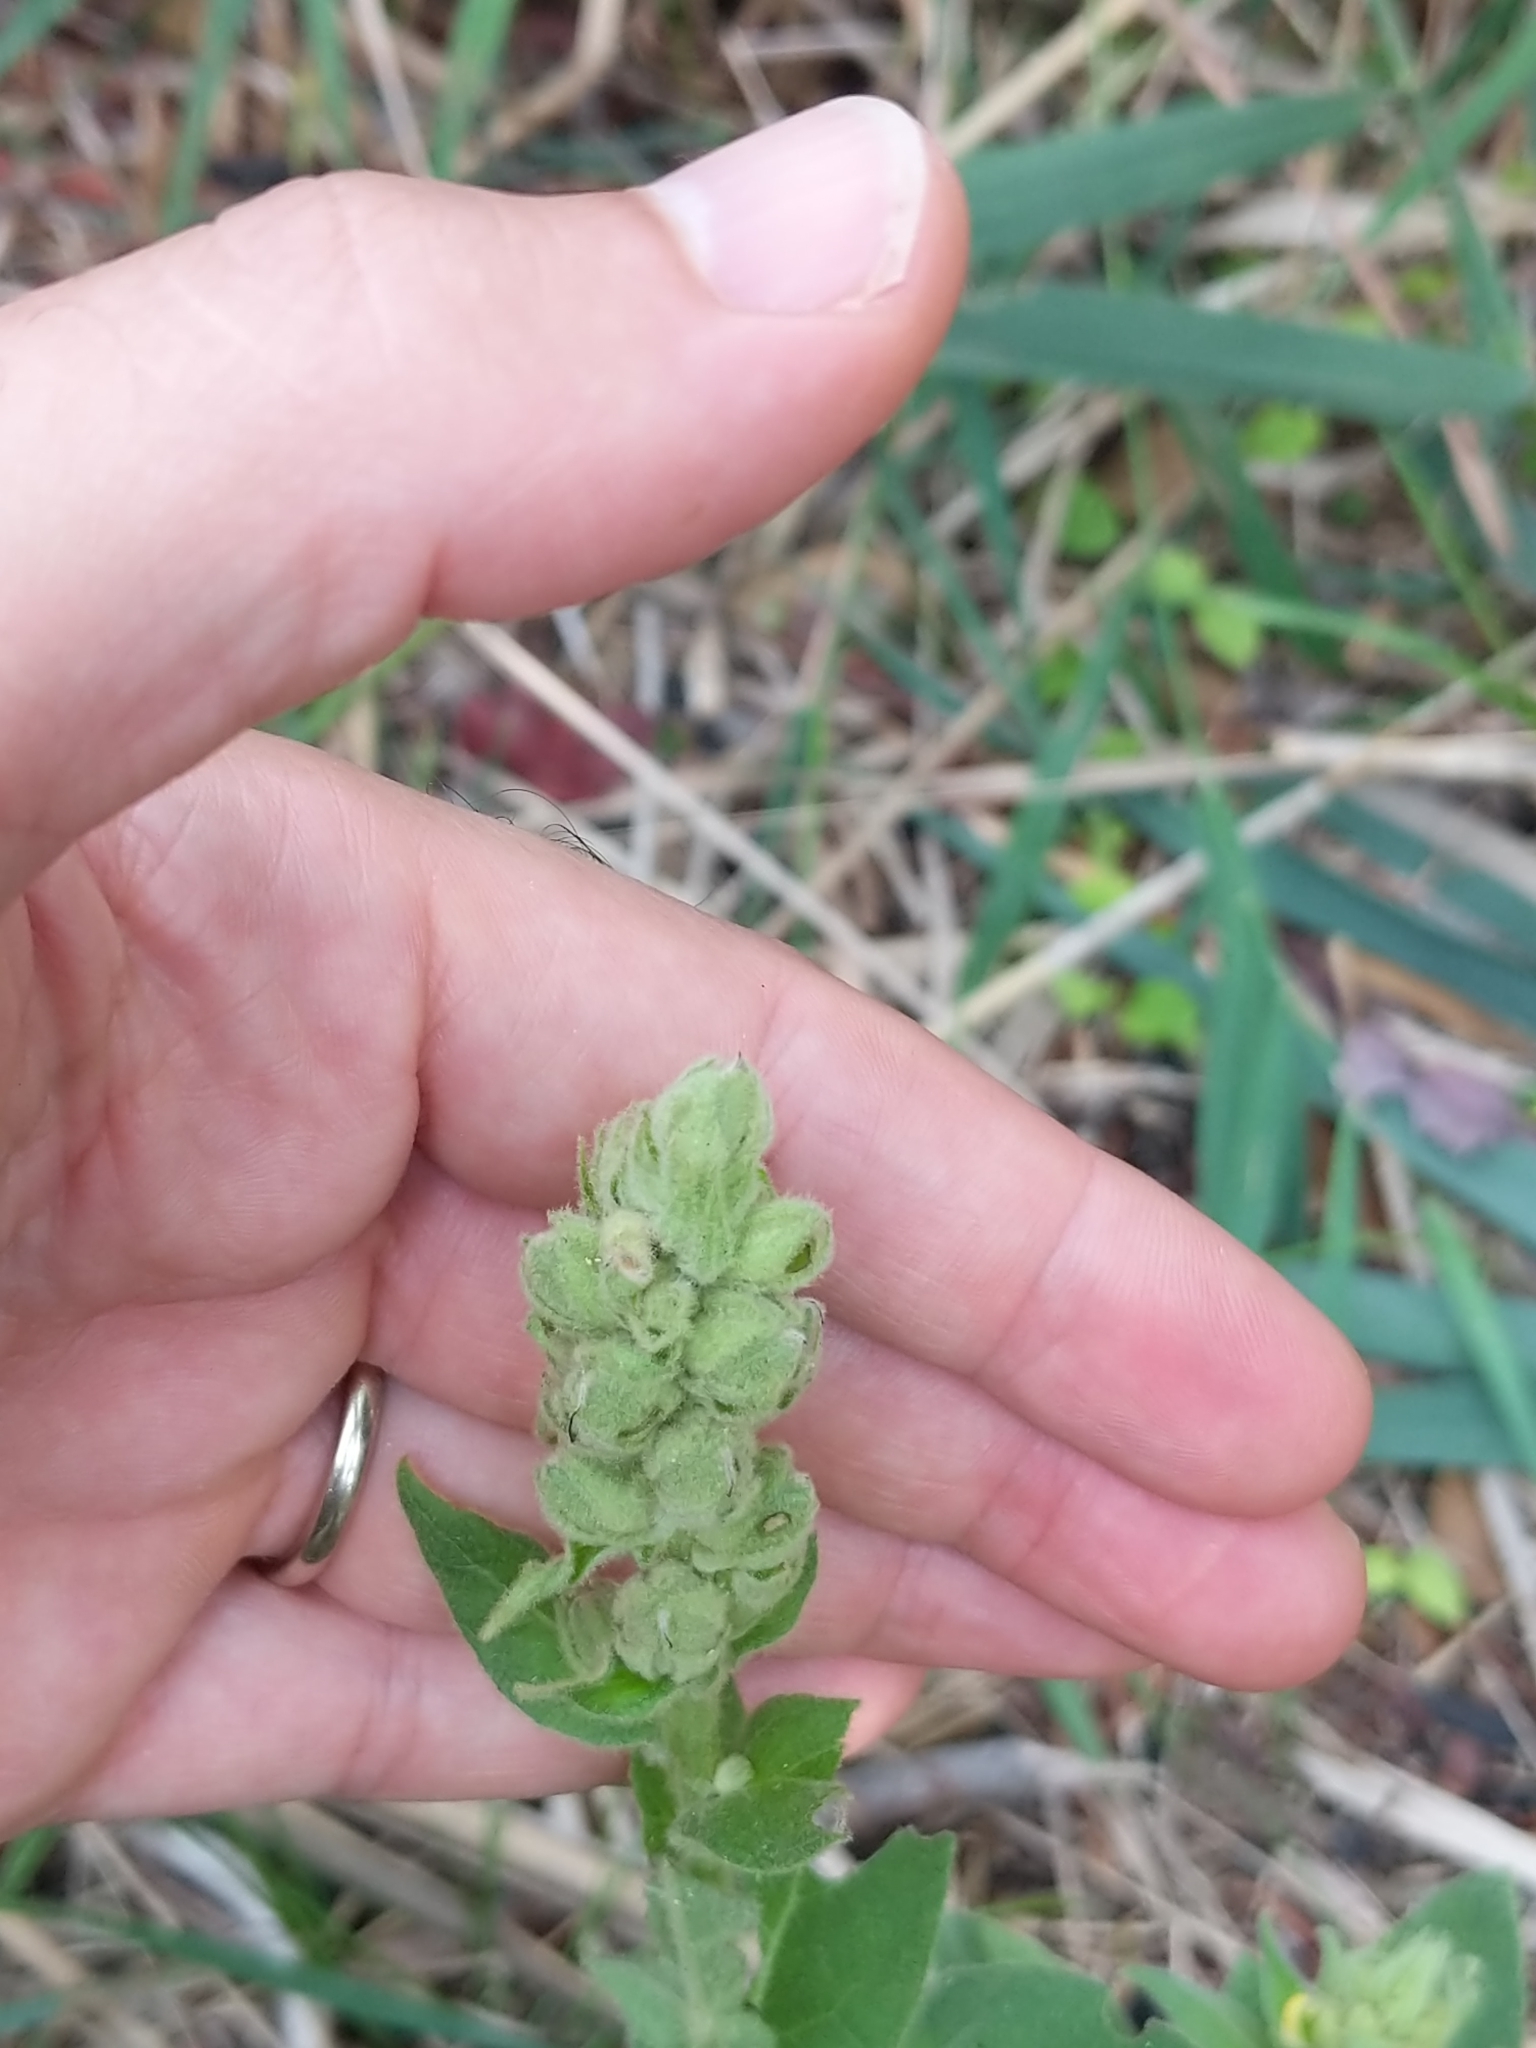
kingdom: Plantae
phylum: Tracheophyta
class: Magnoliopsida
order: Lamiales
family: Scrophulariaceae
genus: Verbascum
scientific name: Verbascum thapsus
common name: Common mullein
